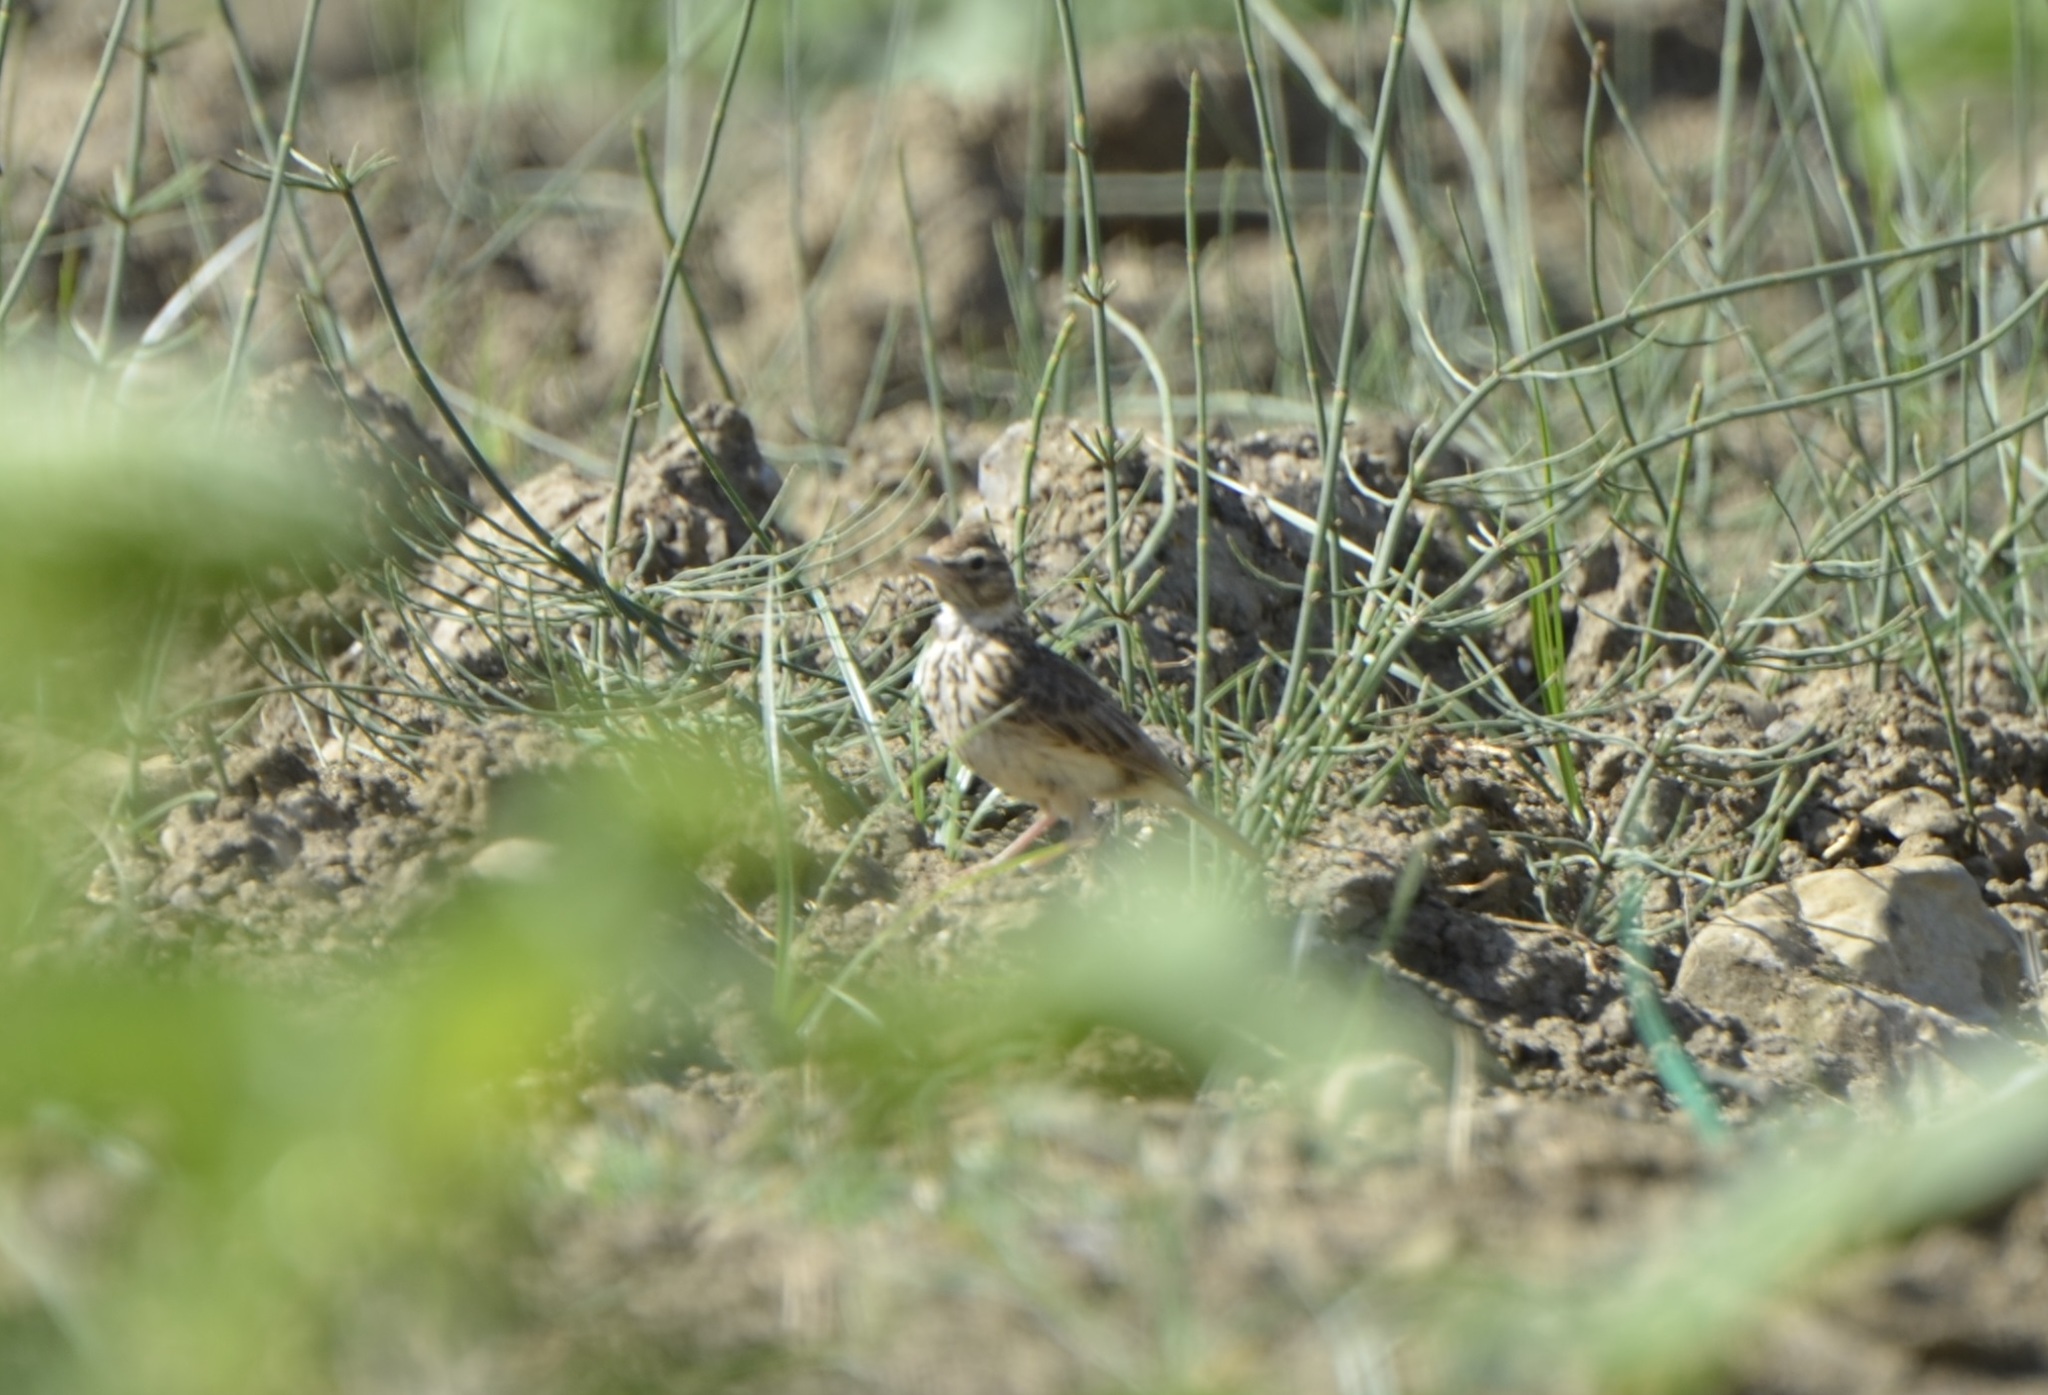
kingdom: Animalia
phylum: Chordata
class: Aves
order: Passeriformes
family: Alaudidae
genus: Alauda
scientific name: Alauda arvensis
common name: Eurasian skylark
